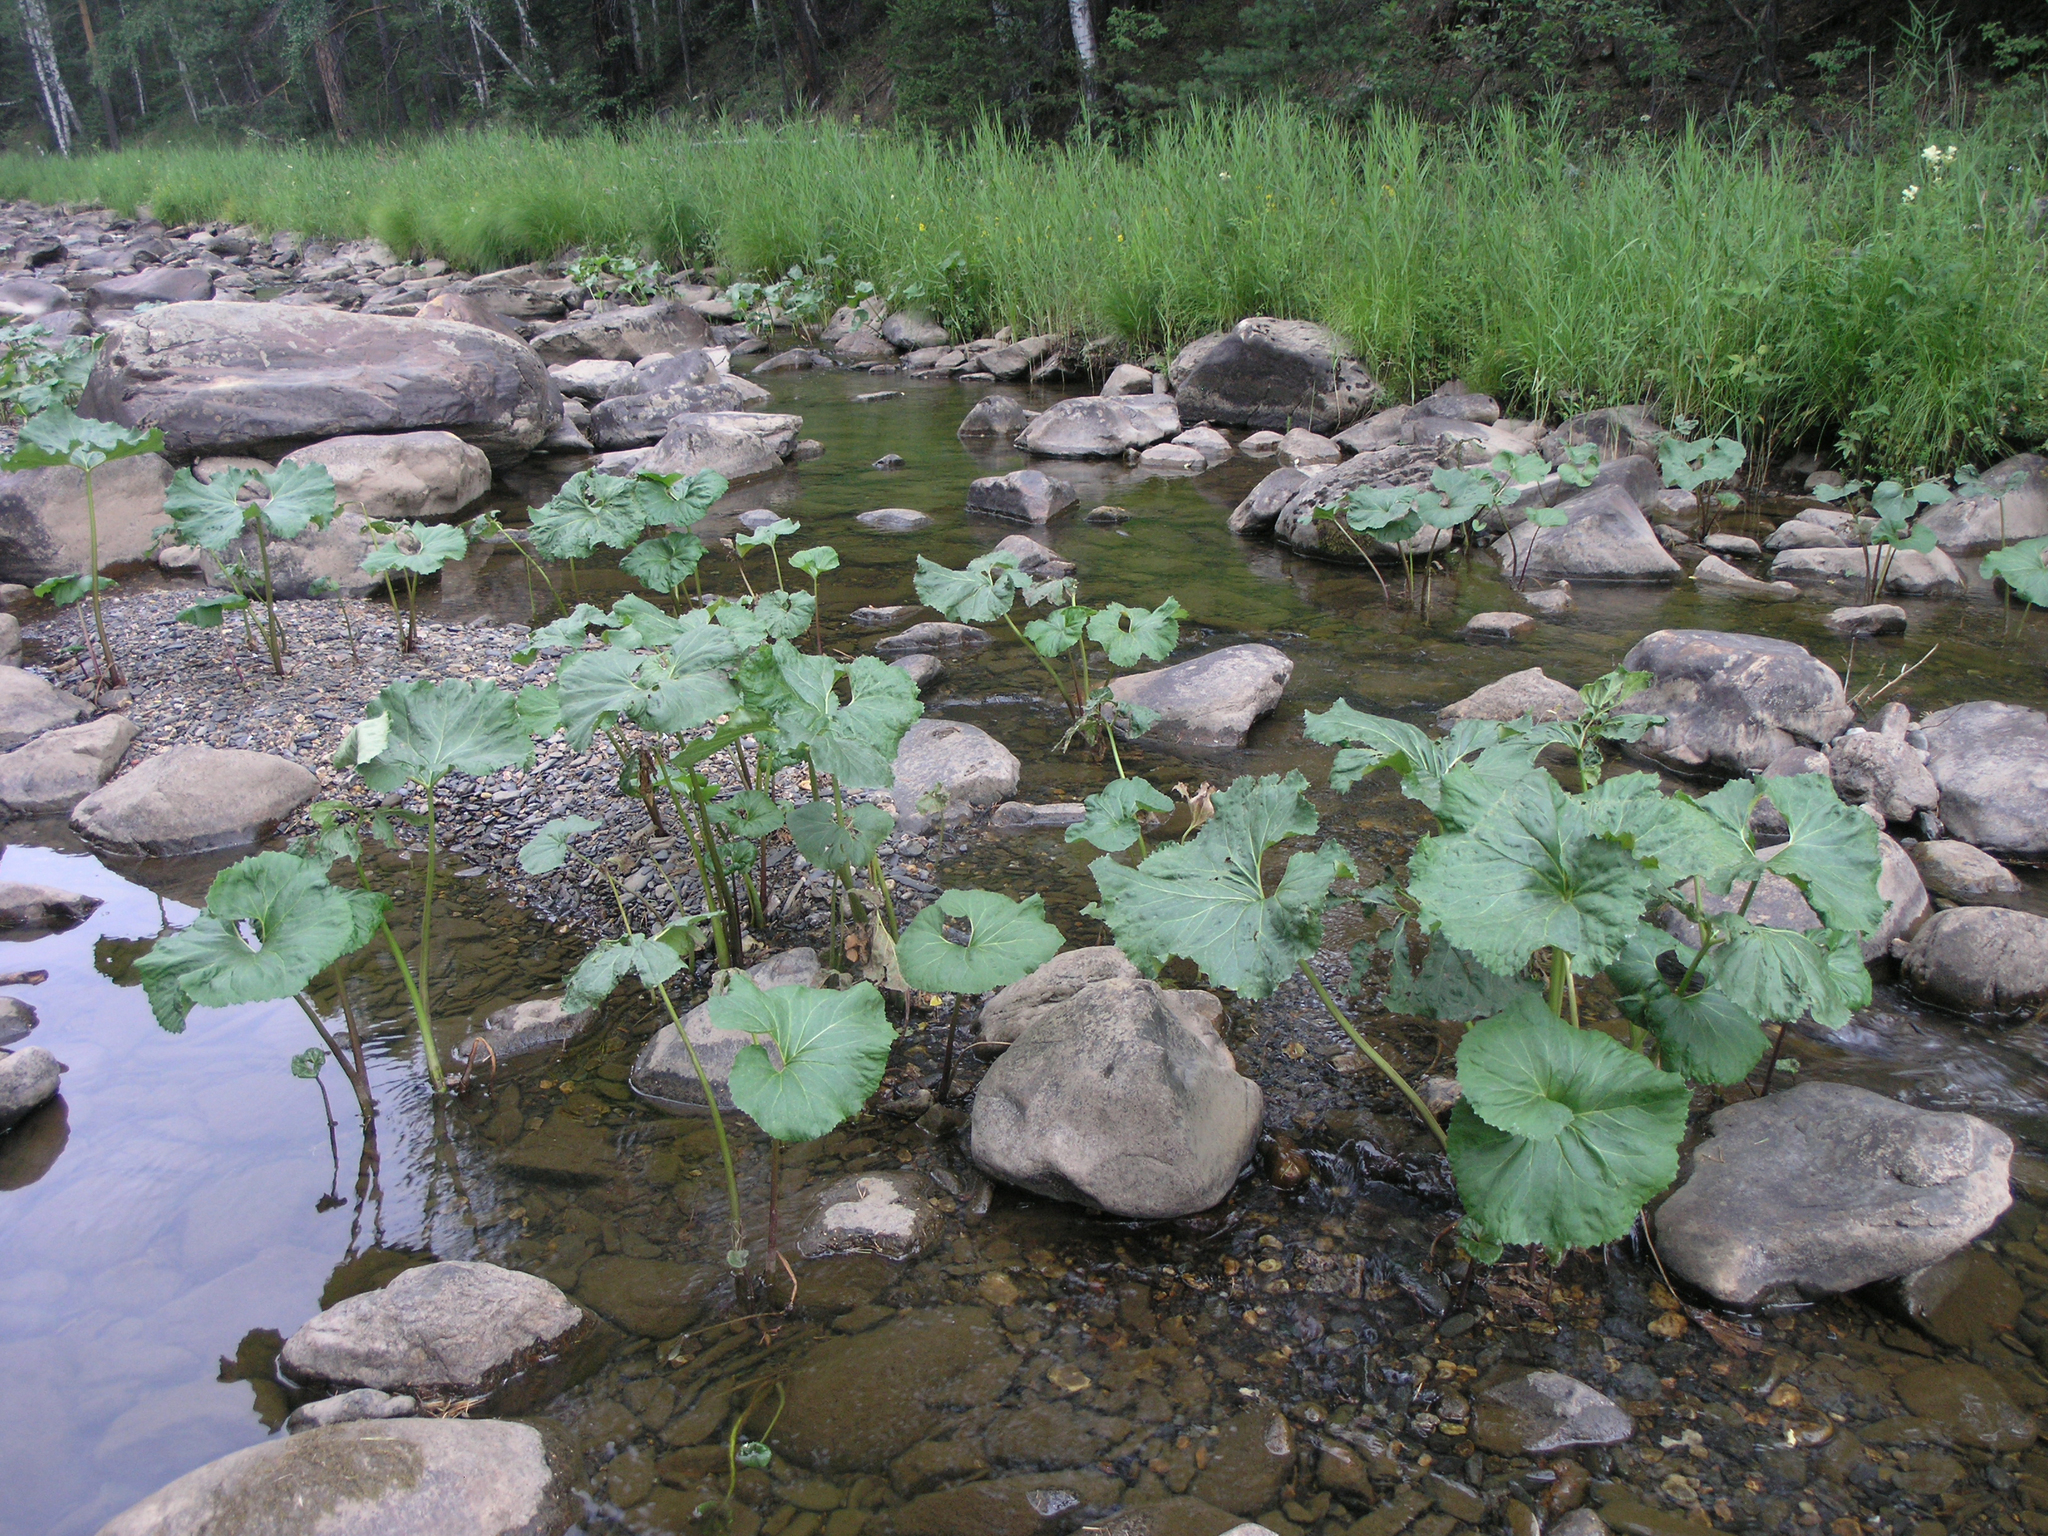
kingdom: Plantae
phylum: Tracheophyta
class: Magnoliopsida
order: Asterales
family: Asteraceae
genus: Petasites
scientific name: Petasites radiatus
